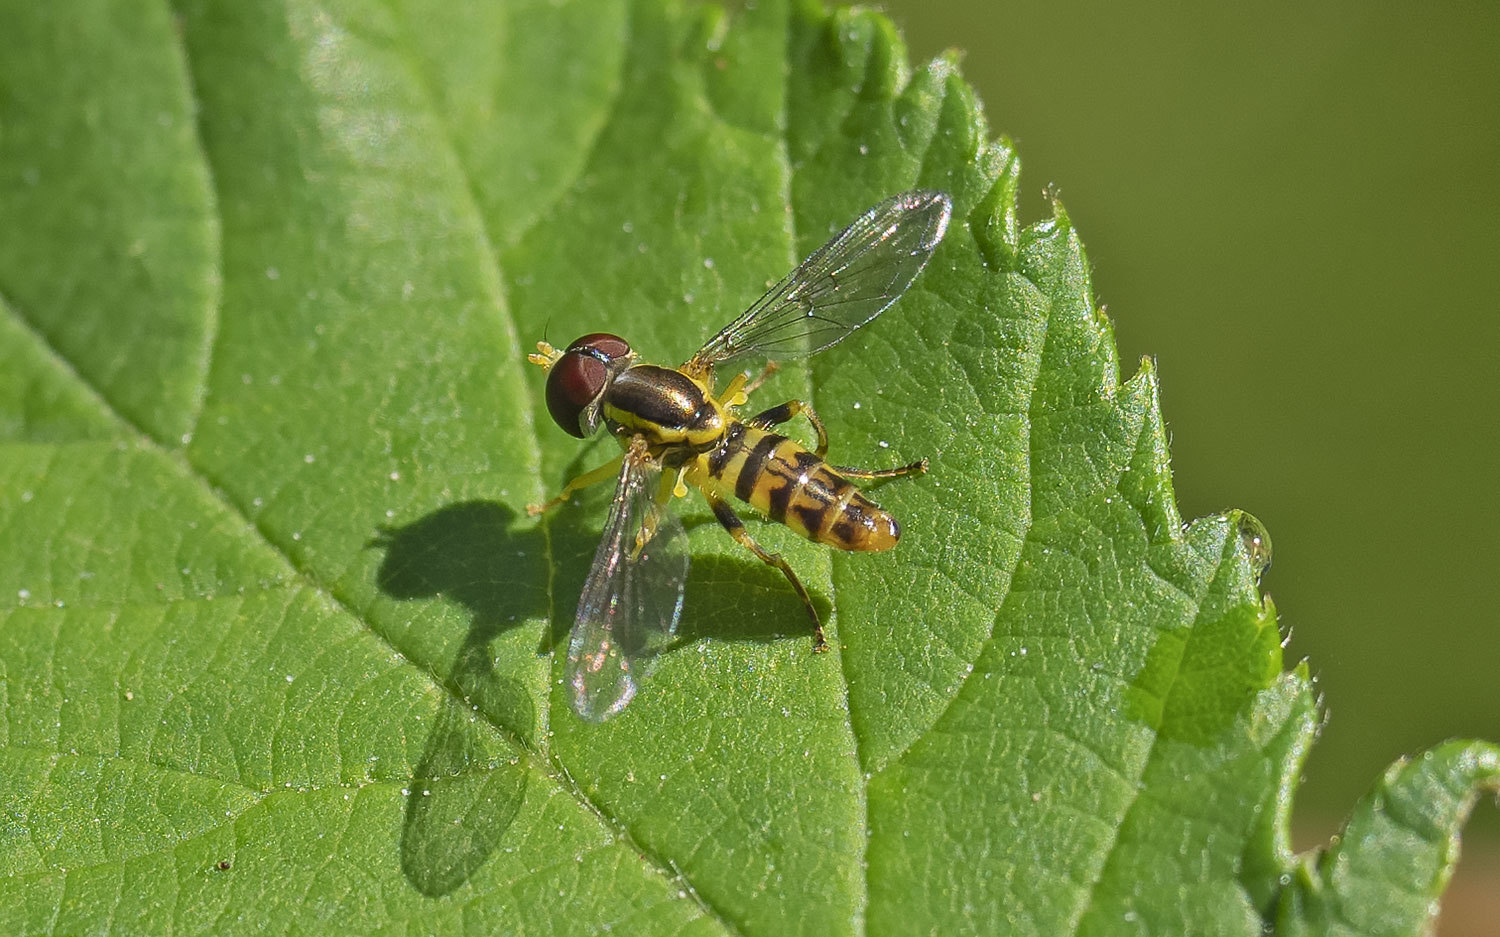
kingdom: Animalia
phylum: Arthropoda
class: Insecta
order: Diptera
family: Syrphidae
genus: Toxomerus
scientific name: Toxomerus geminatus
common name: Eastern calligrapher
